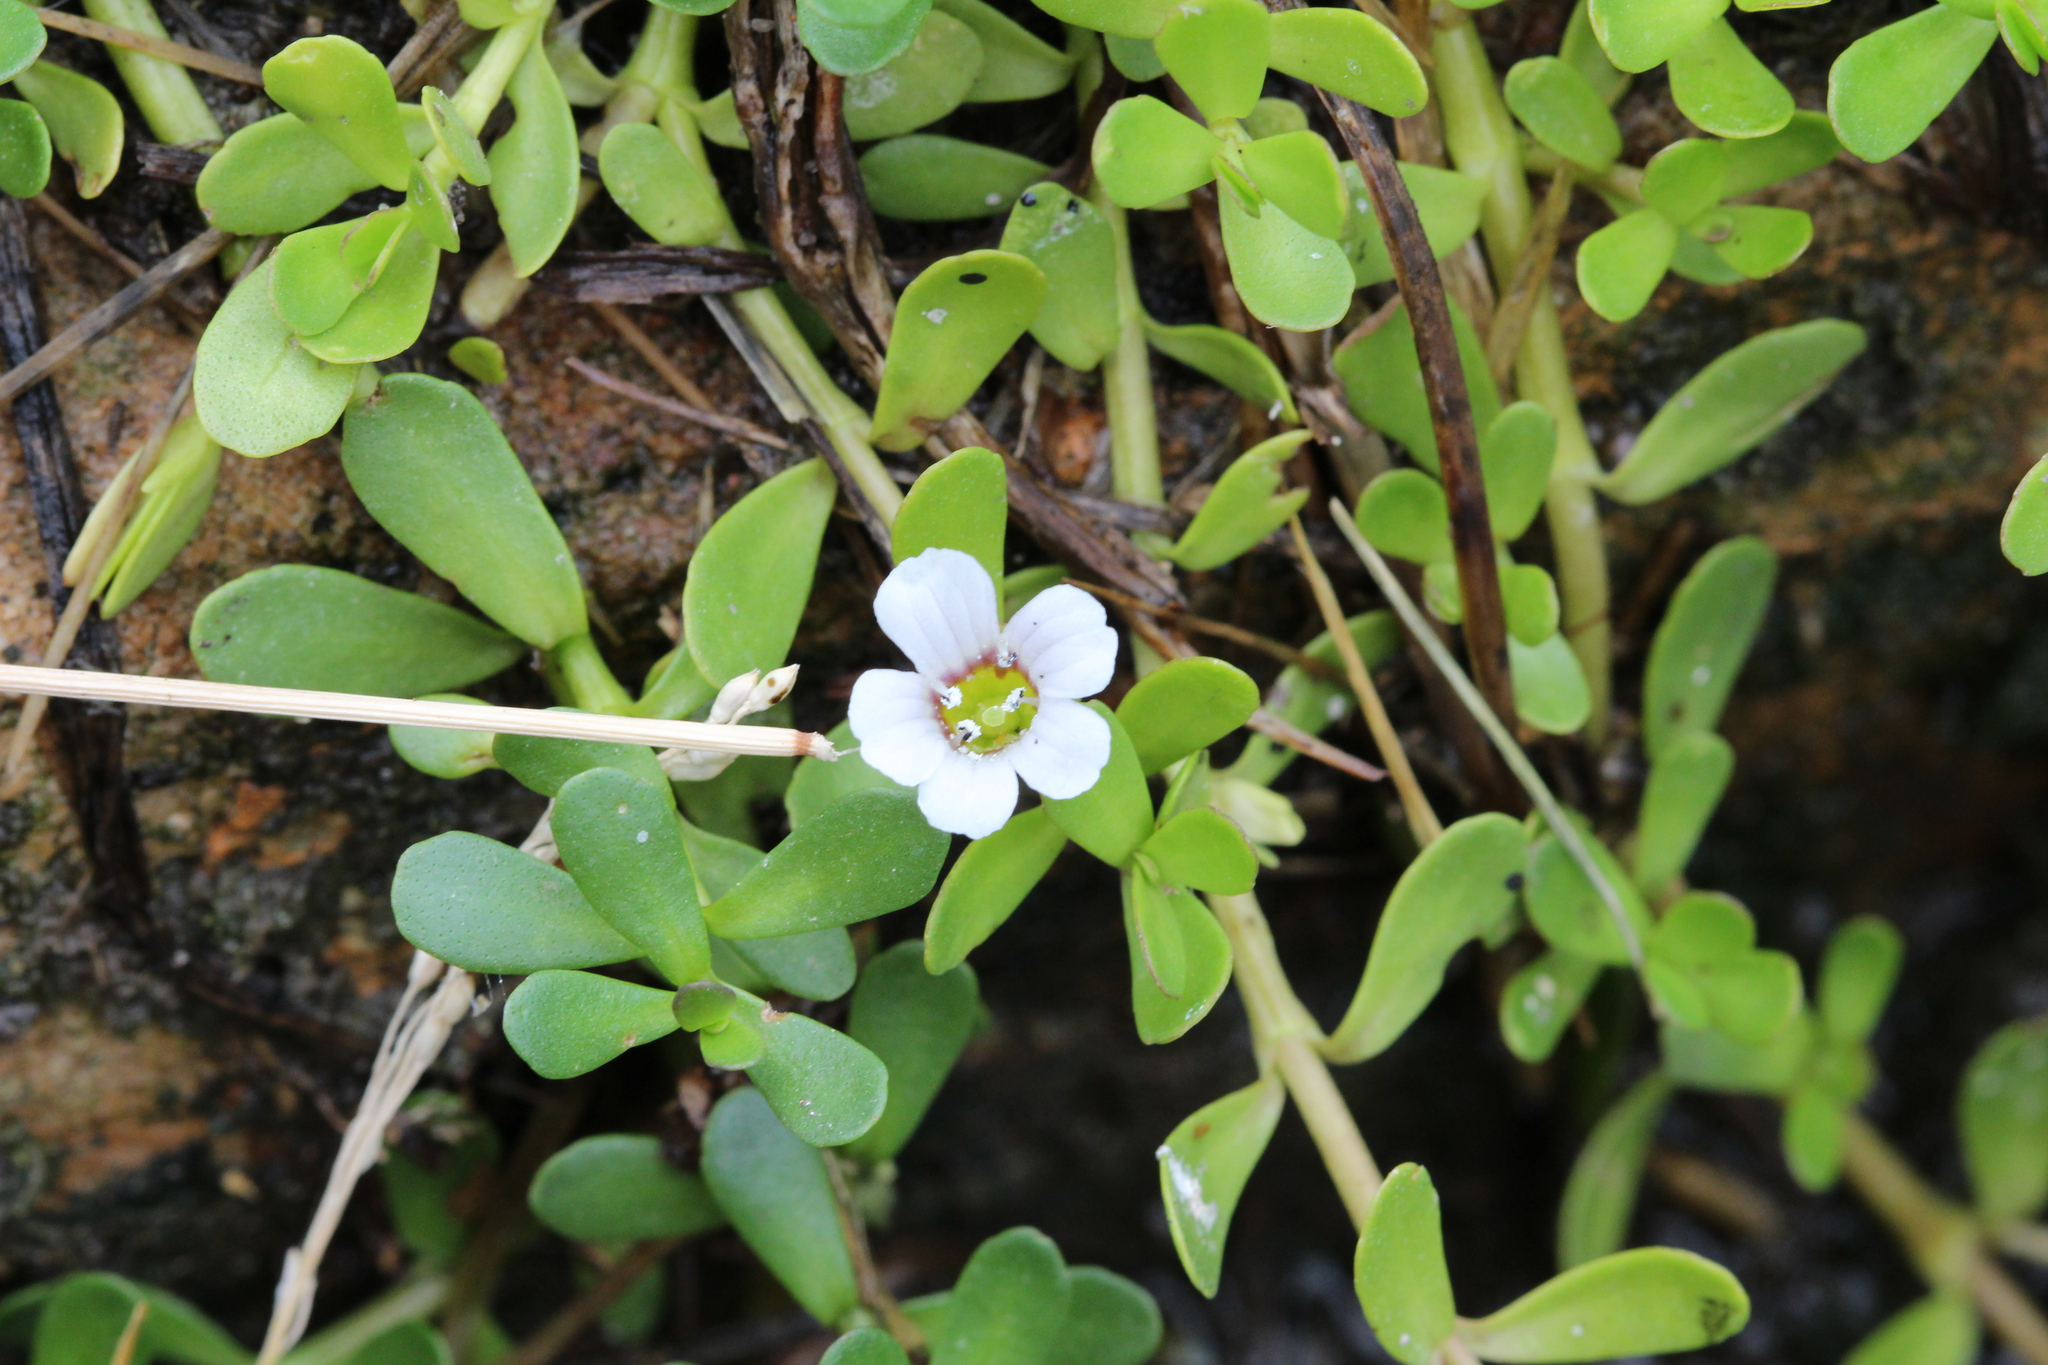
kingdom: Plantae
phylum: Tracheophyta
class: Magnoliopsida
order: Lamiales
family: Plantaginaceae
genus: Bacopa
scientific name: Bacopa monnieri
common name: Indian-pennywort
